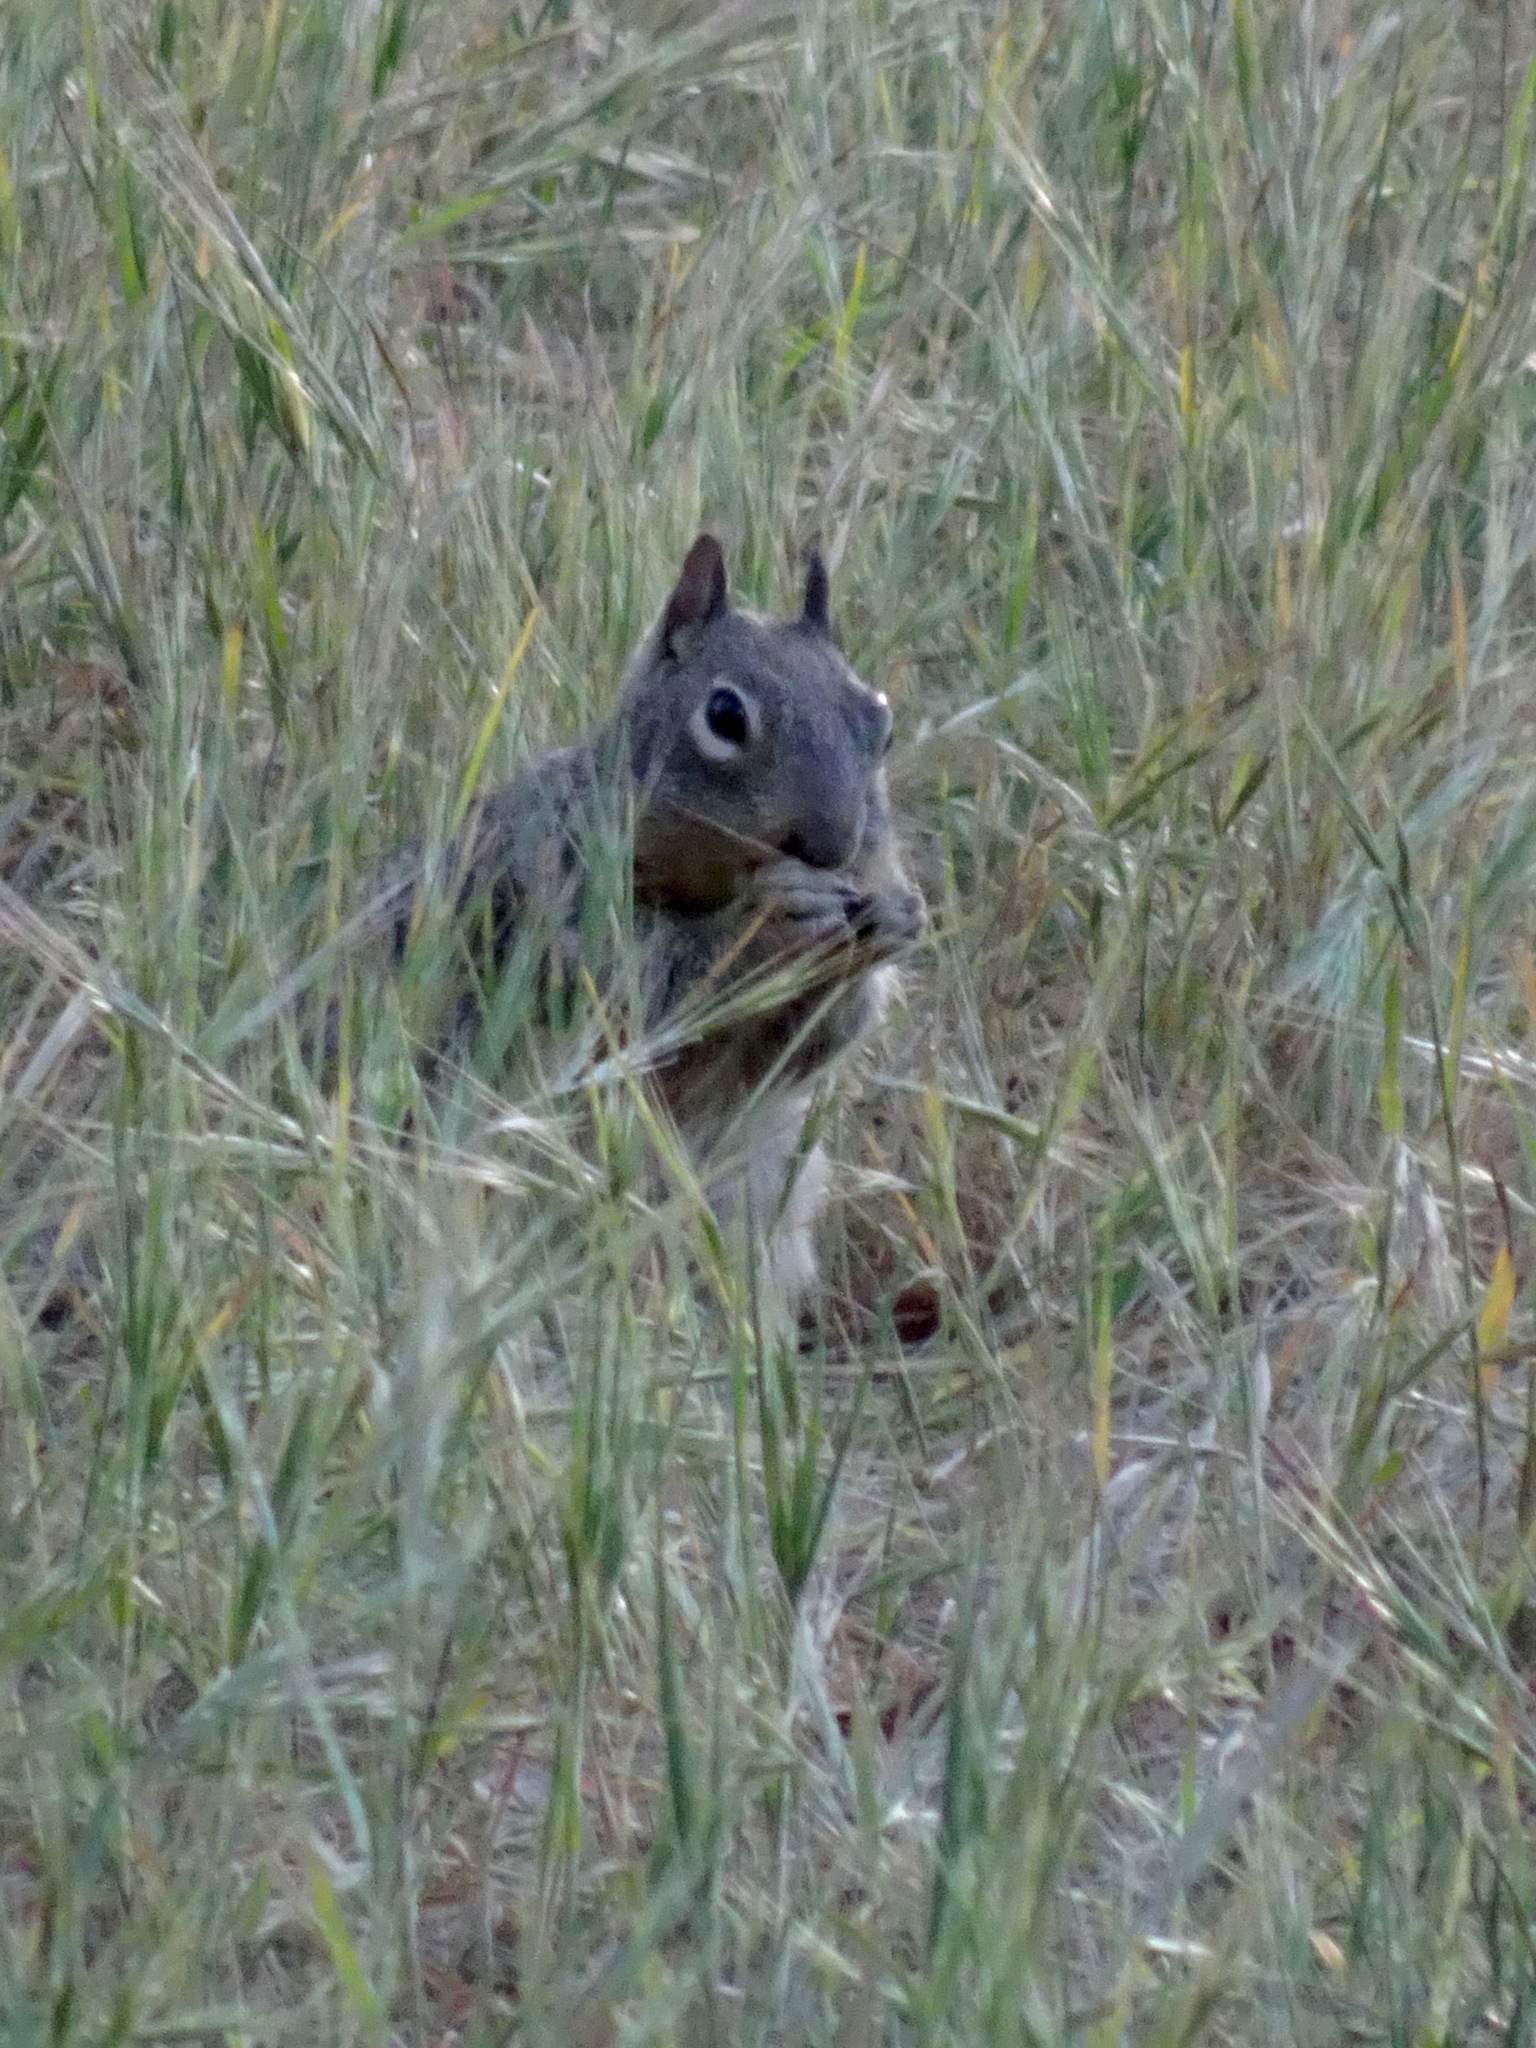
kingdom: Animalia
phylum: Chordata
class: Mammalia
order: Rodentia
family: Sciuridae
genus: Otospermophilus
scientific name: Otospermophilus beecheyi
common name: California ground squirrel
